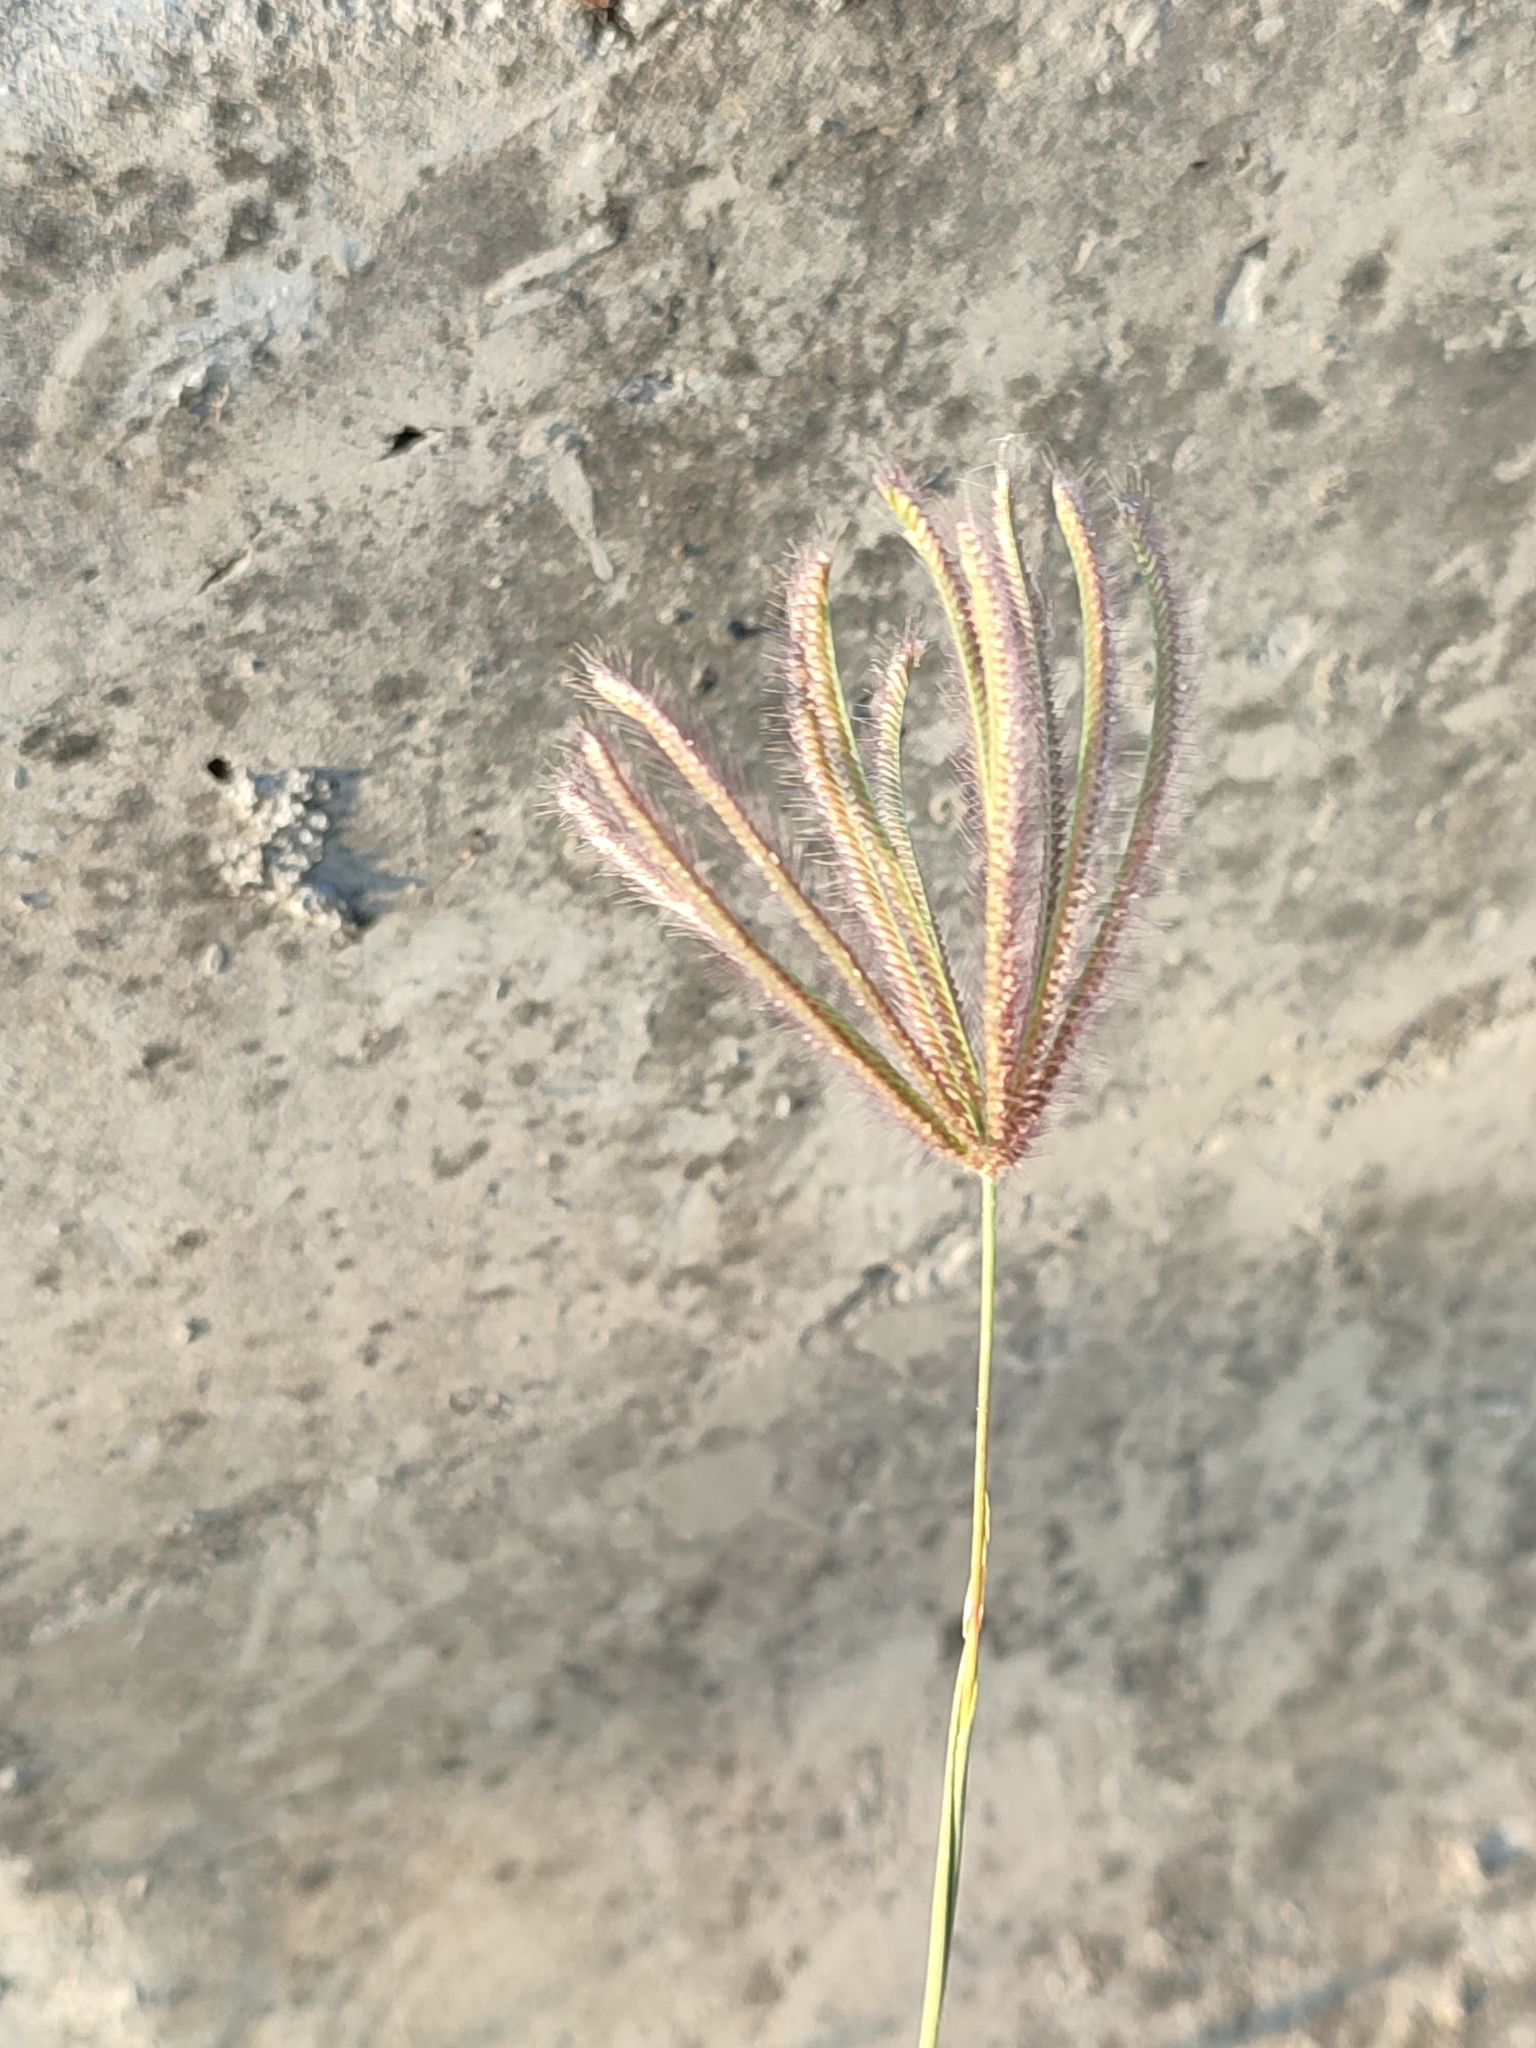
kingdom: Plantae
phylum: Tracheophyta
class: Liliopsida
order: Poales
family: Poaceae
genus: Chloris
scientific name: Chloris barbata
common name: Swollen fingergrass
